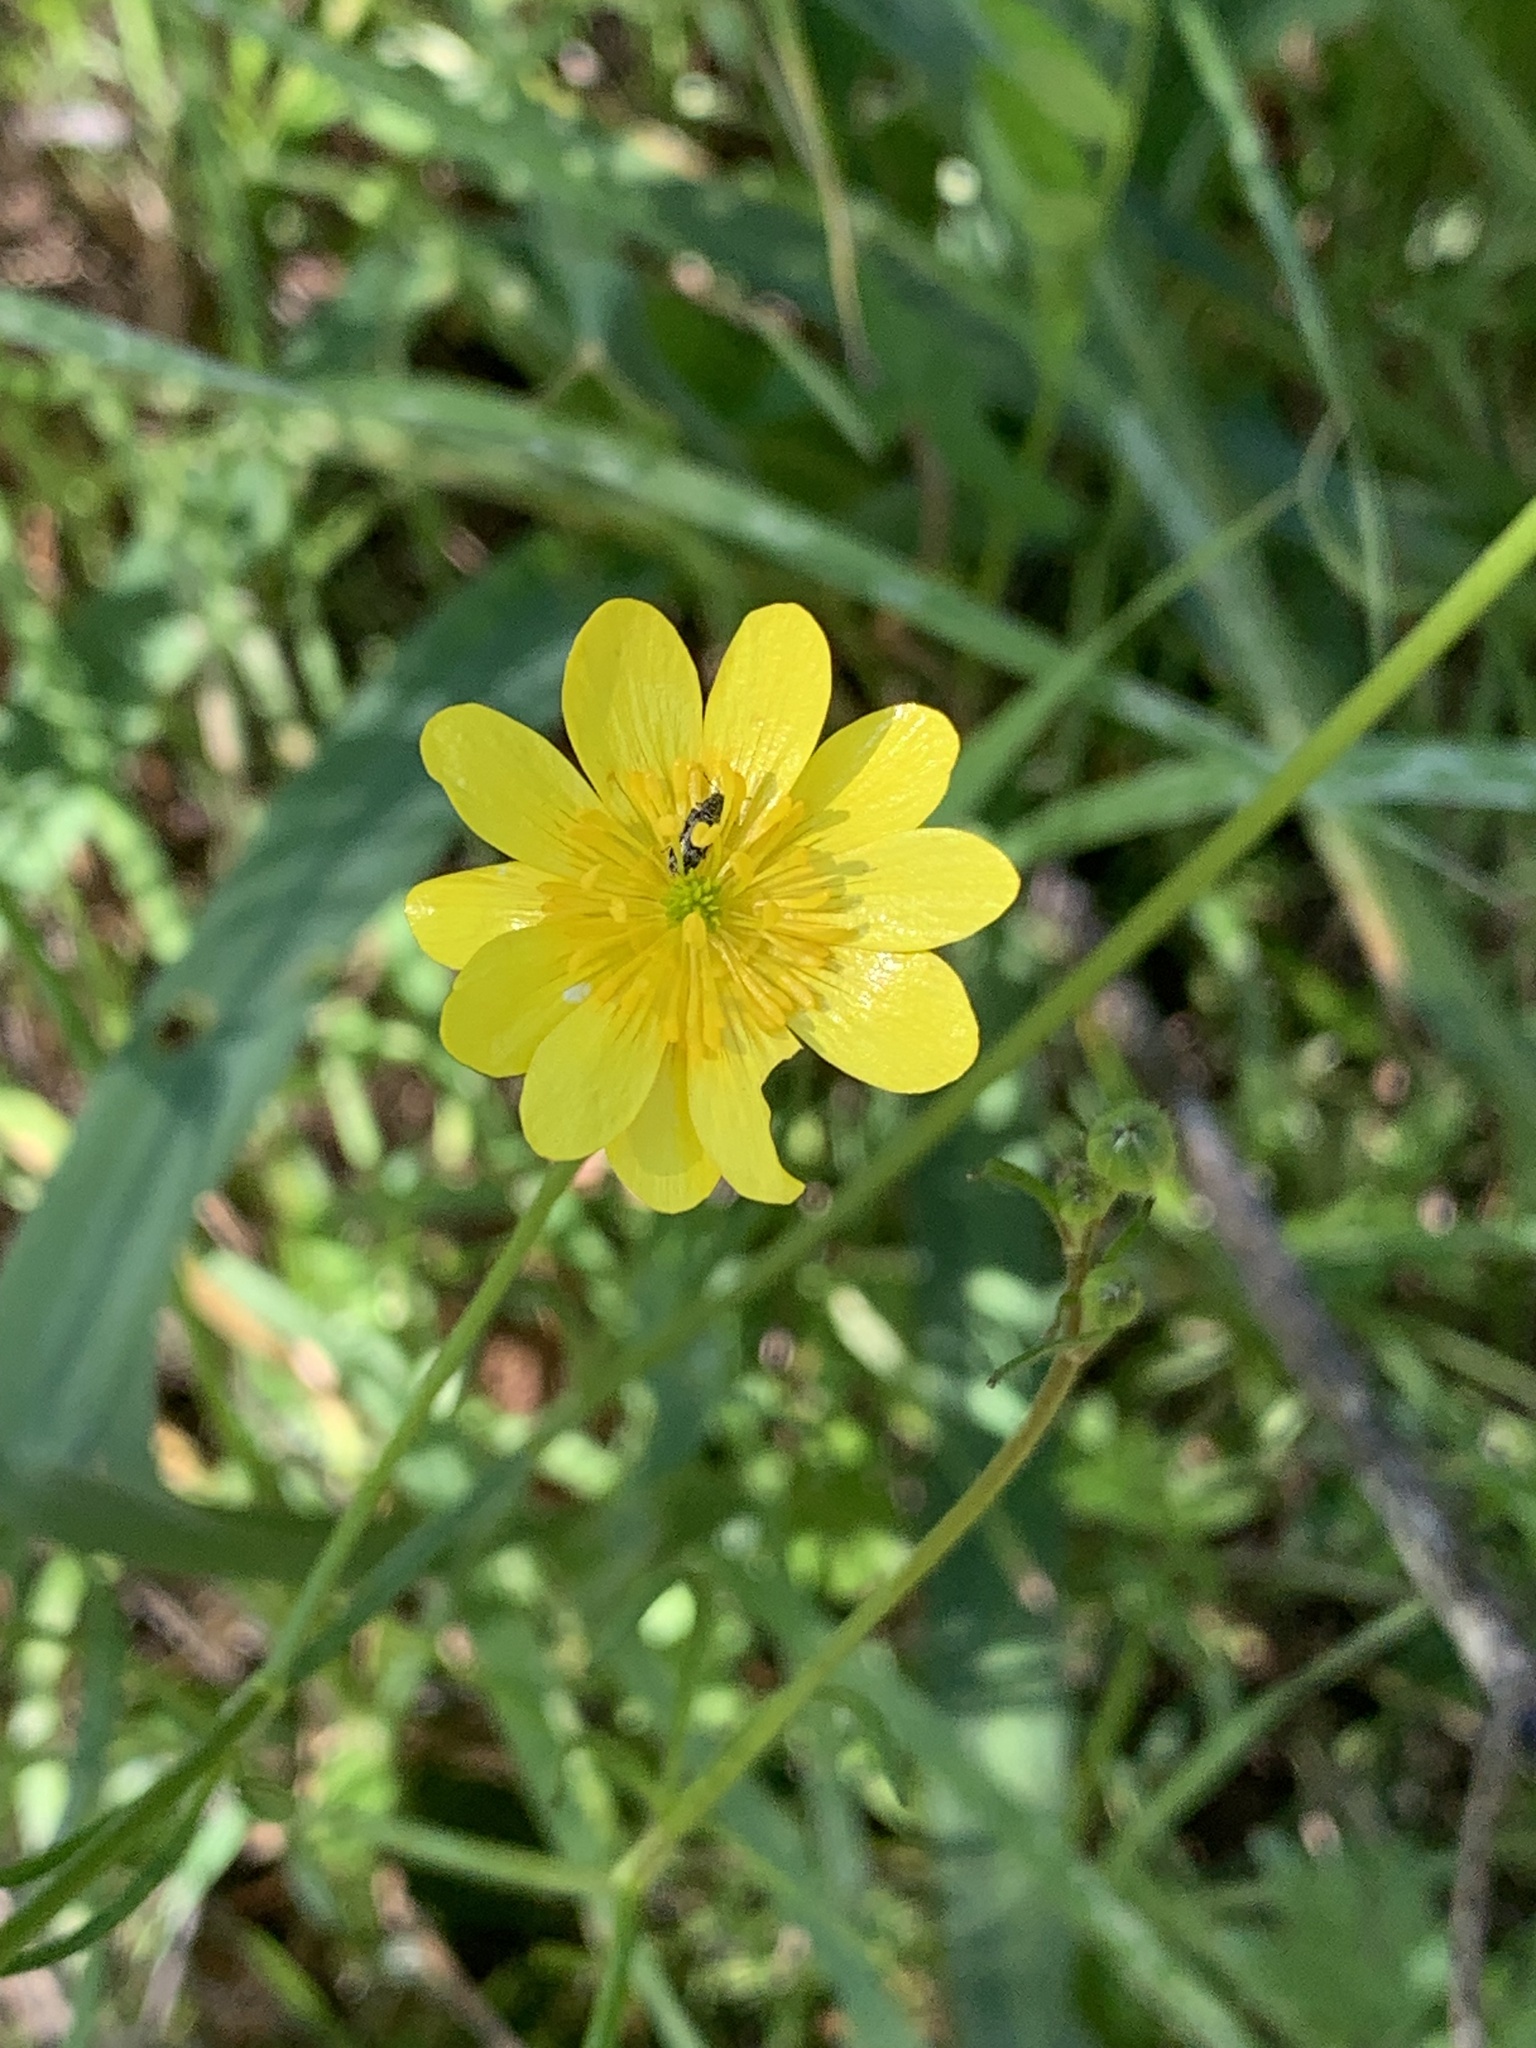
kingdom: Plantae
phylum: Tracheophyta
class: Magnoliopsida
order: Ranunculales
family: Ranunculaceae
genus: Ranunculus
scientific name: Ranunculus californicus
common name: California buttercup
